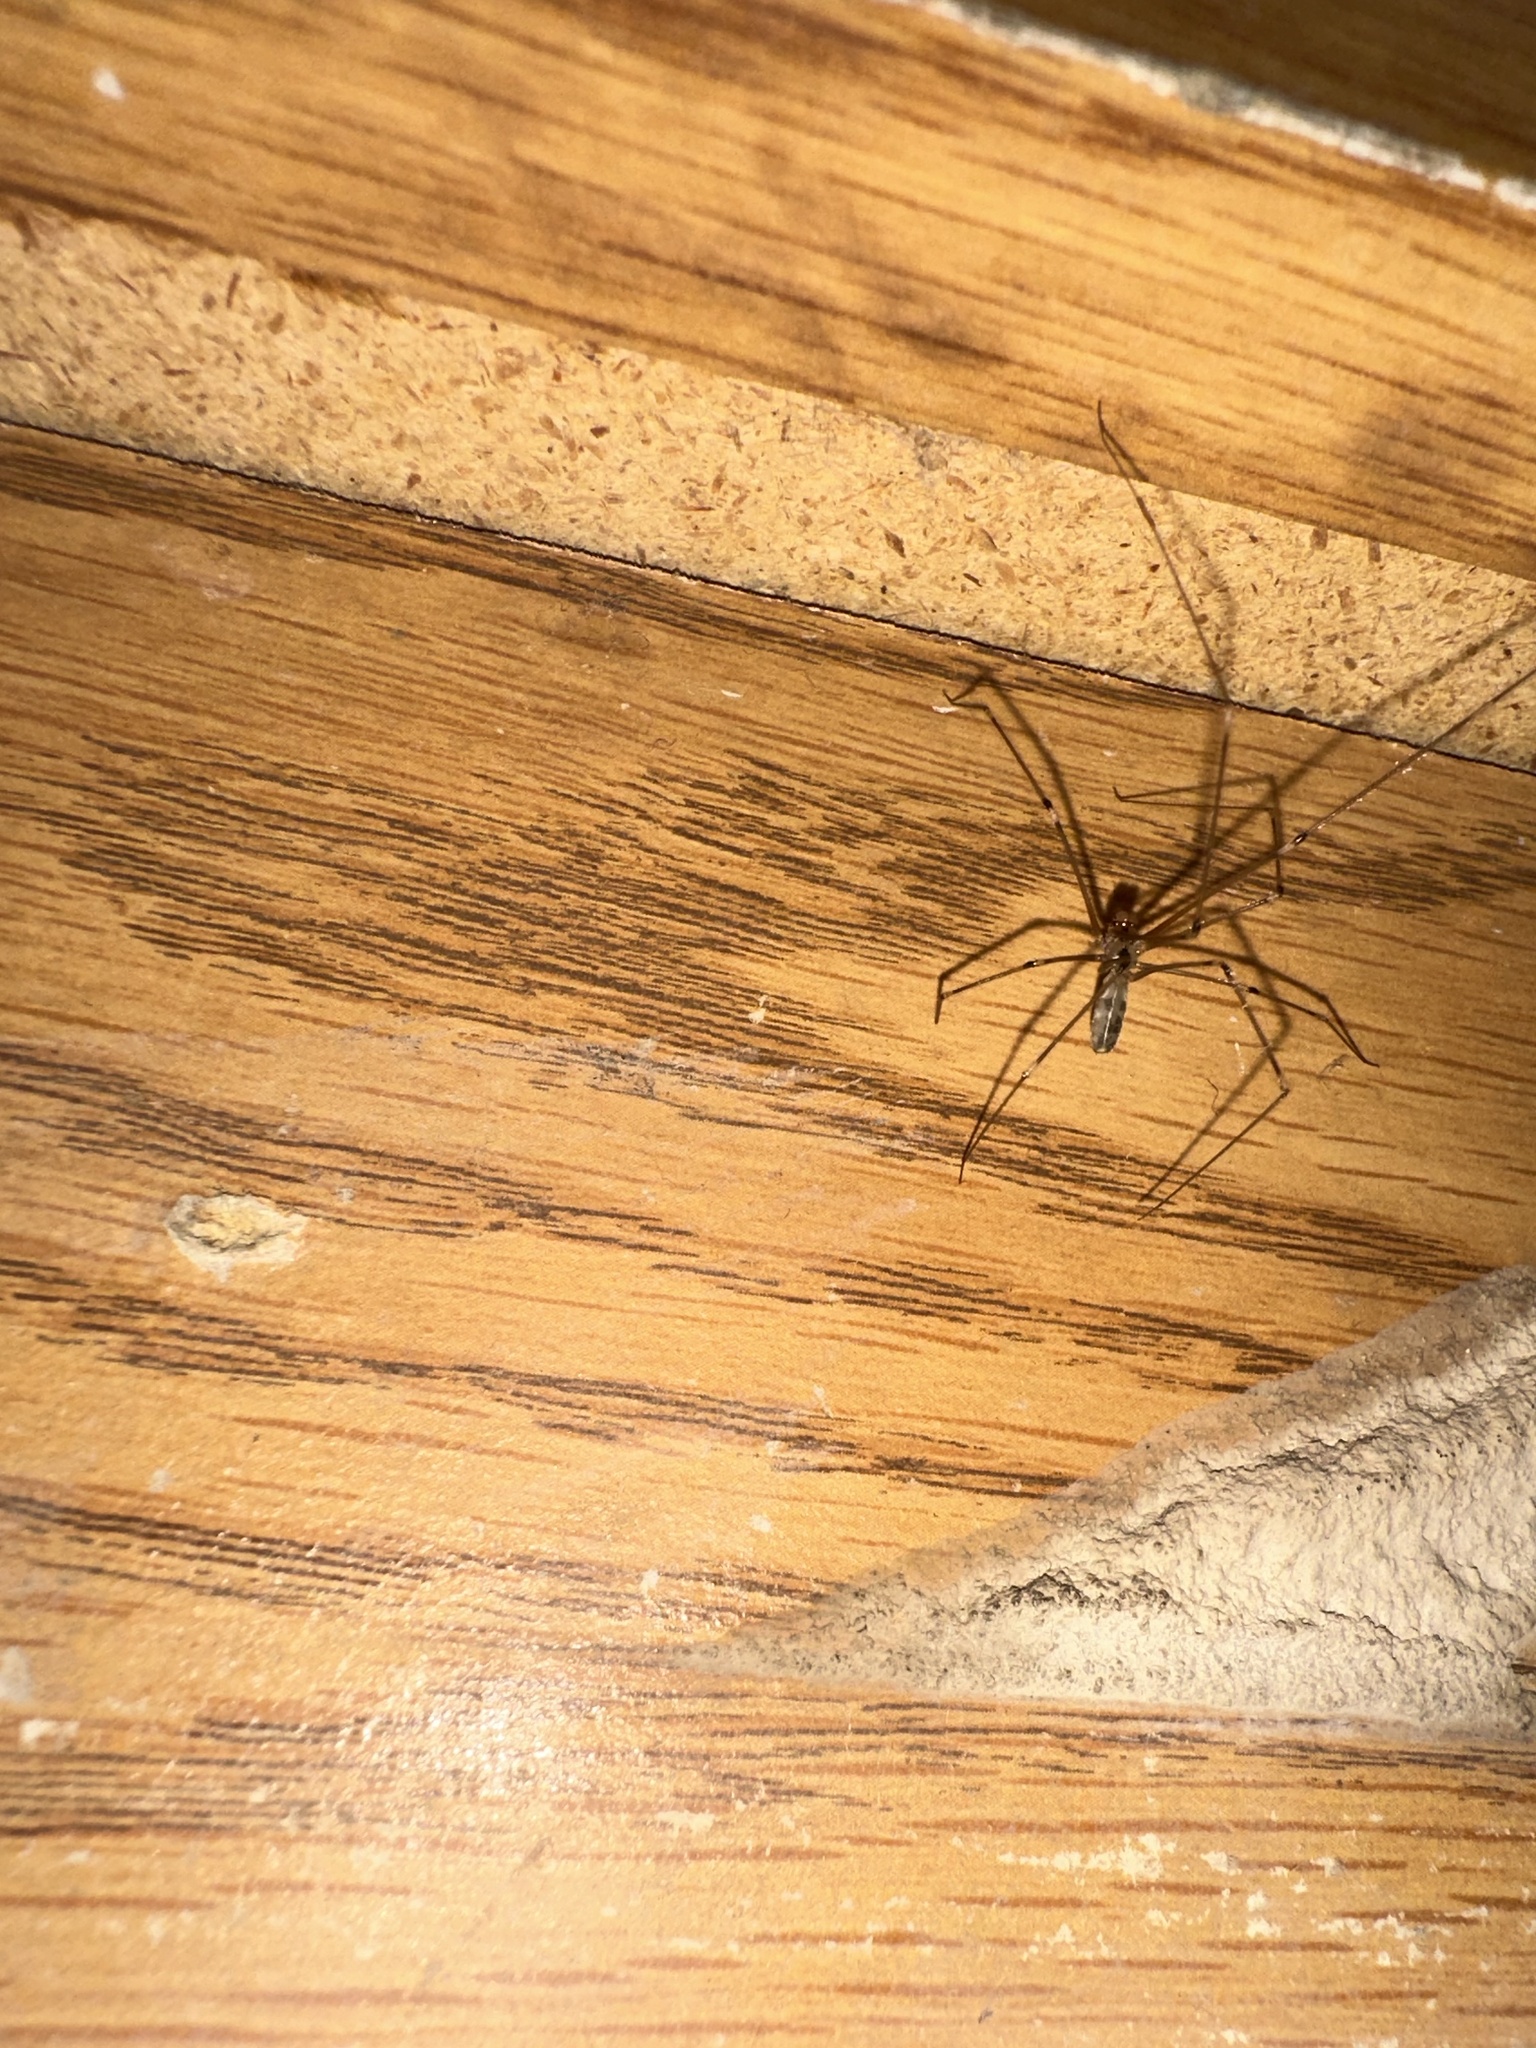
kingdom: Animalia
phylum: Arthropoda
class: Arachnida
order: Araneae
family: Pholcidae
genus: Pholcus
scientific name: Pholcus phalangioides
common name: Longbodied cellar spider
